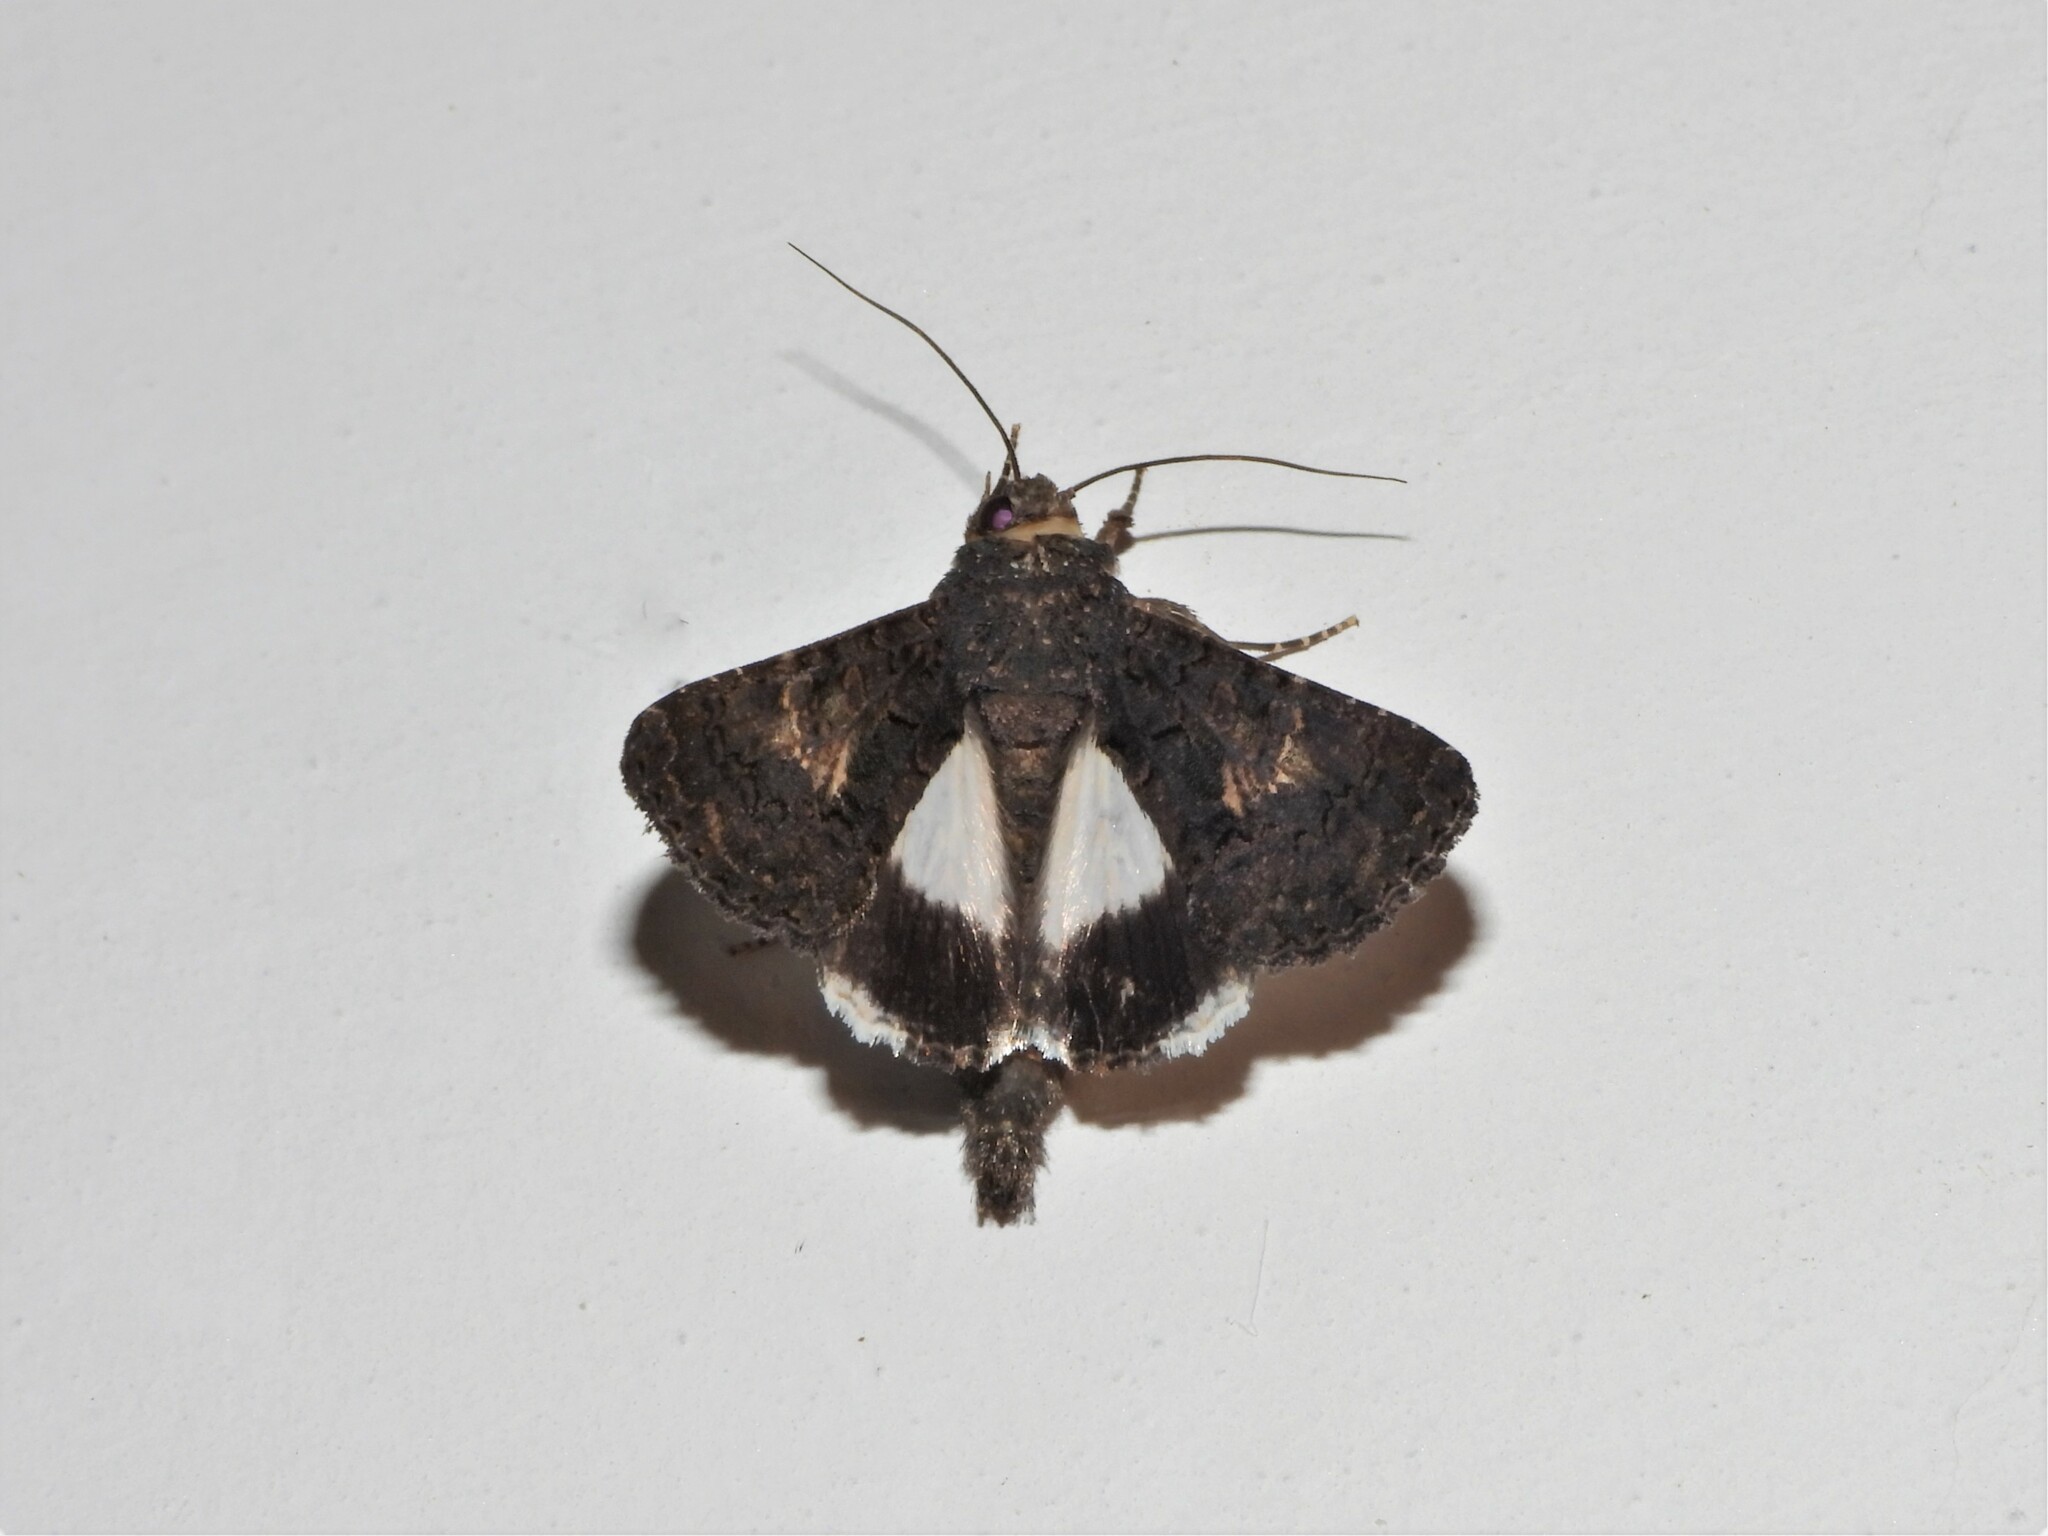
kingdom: Animalia
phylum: Arthropoda
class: Insecta
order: Lepidoptera
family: Noctuidae
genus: Aedia
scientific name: Aedia leucomelas
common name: Sorcerer
